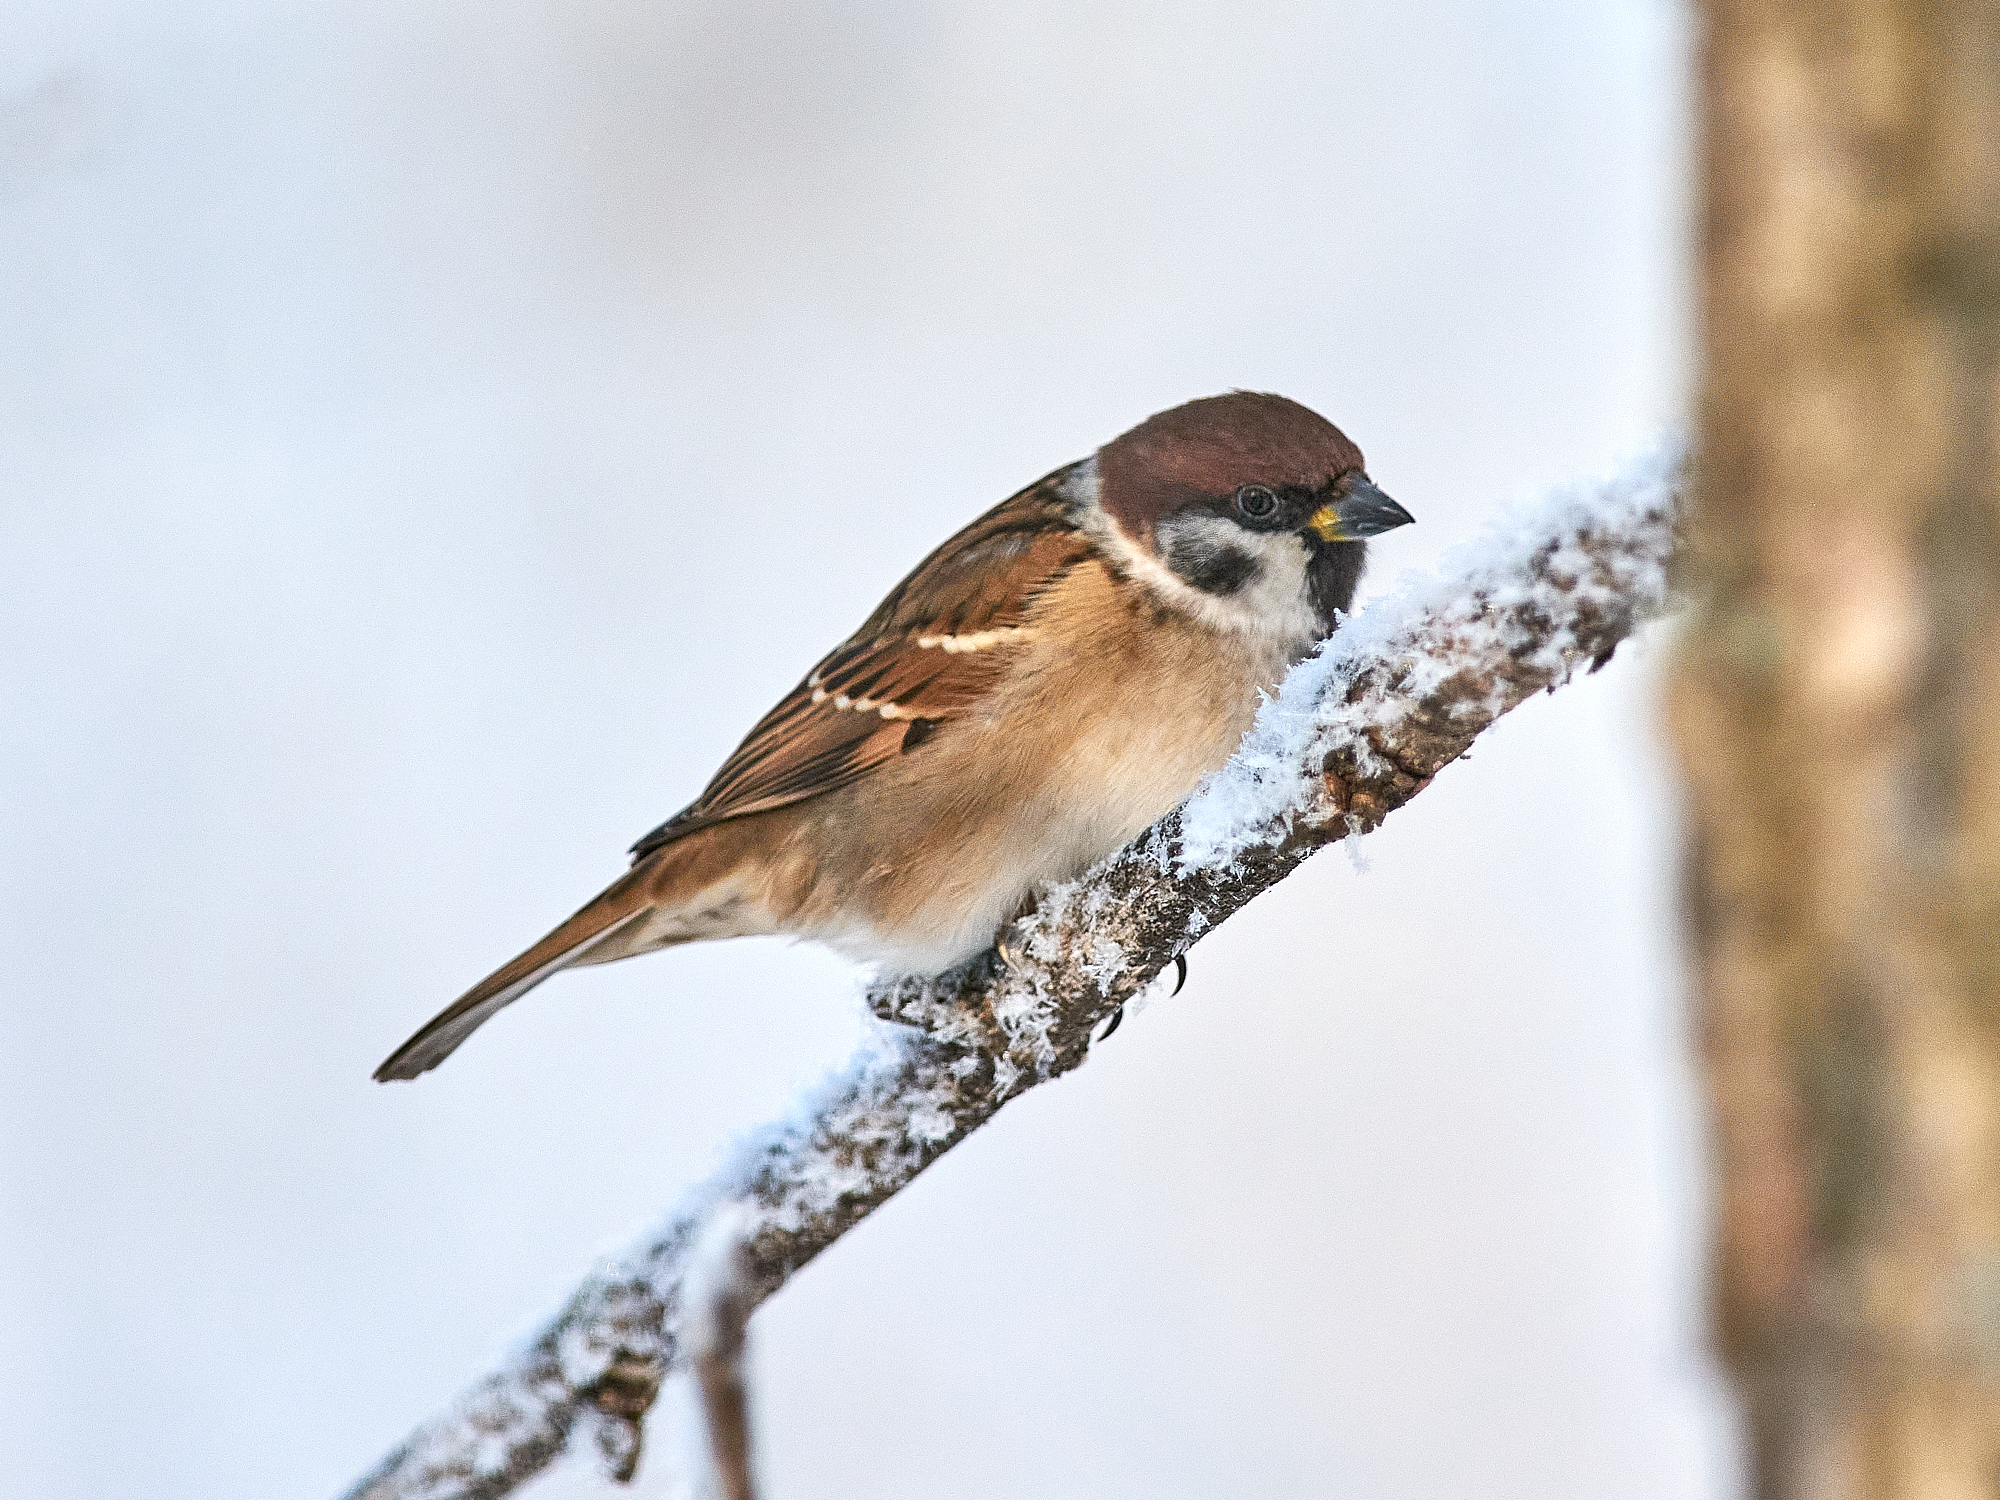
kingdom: Animalia
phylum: Chordata
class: Aves
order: Passeriformes
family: Passeridae
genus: Passer
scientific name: Passer montanus
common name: Eurasian tree sparrow
